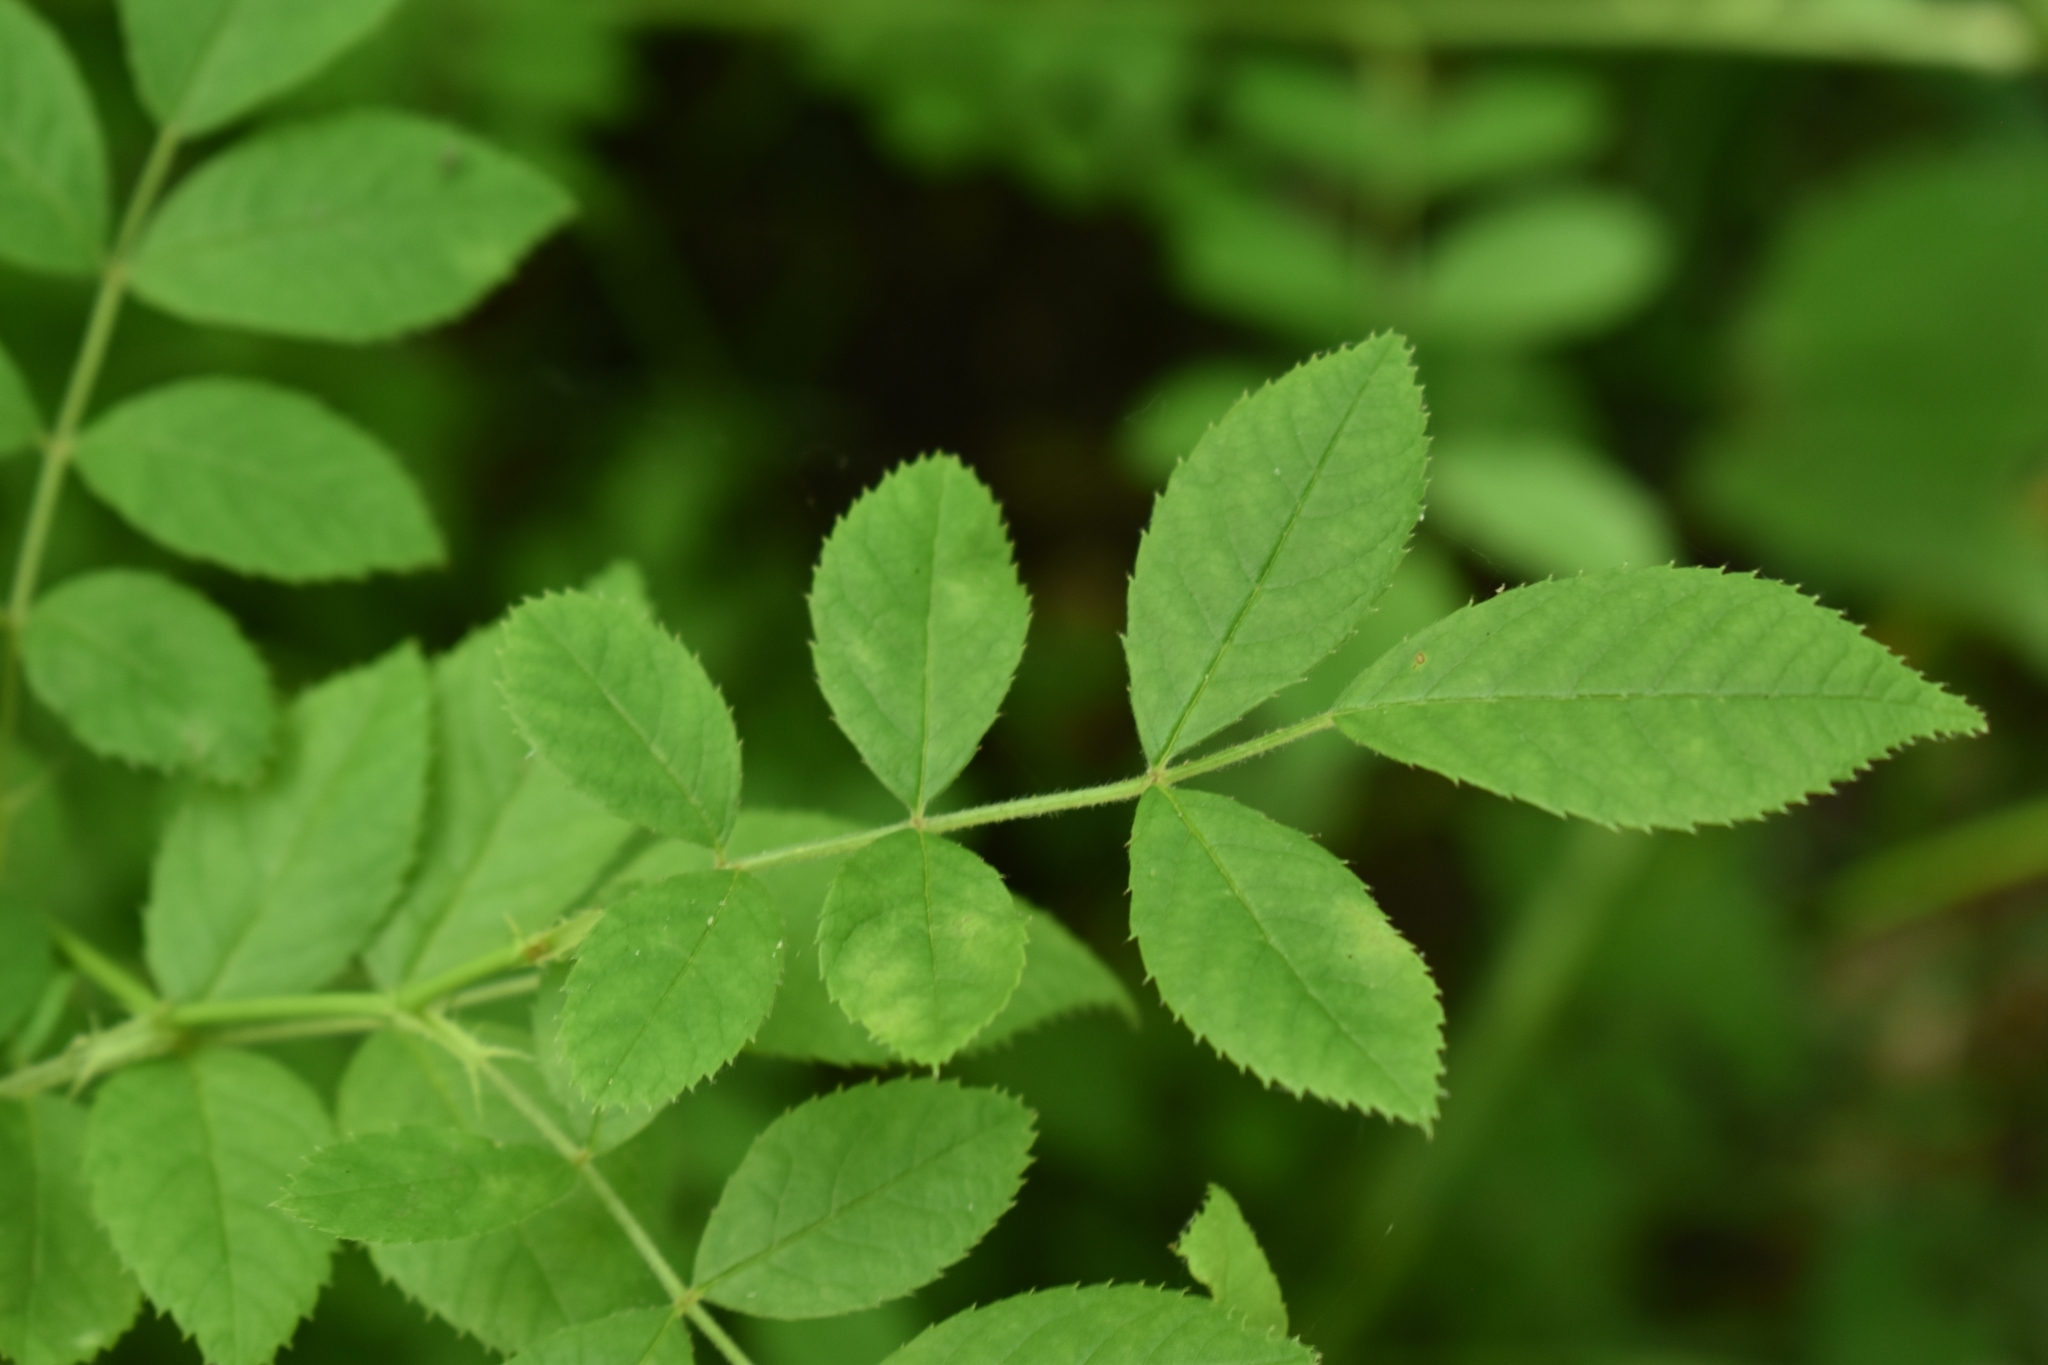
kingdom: Plantae
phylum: Tracheophyta
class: Magnoliopsida
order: Rosales
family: Rosaceae
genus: Rosa
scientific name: Rosa multiflora
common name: Multiflora rose
